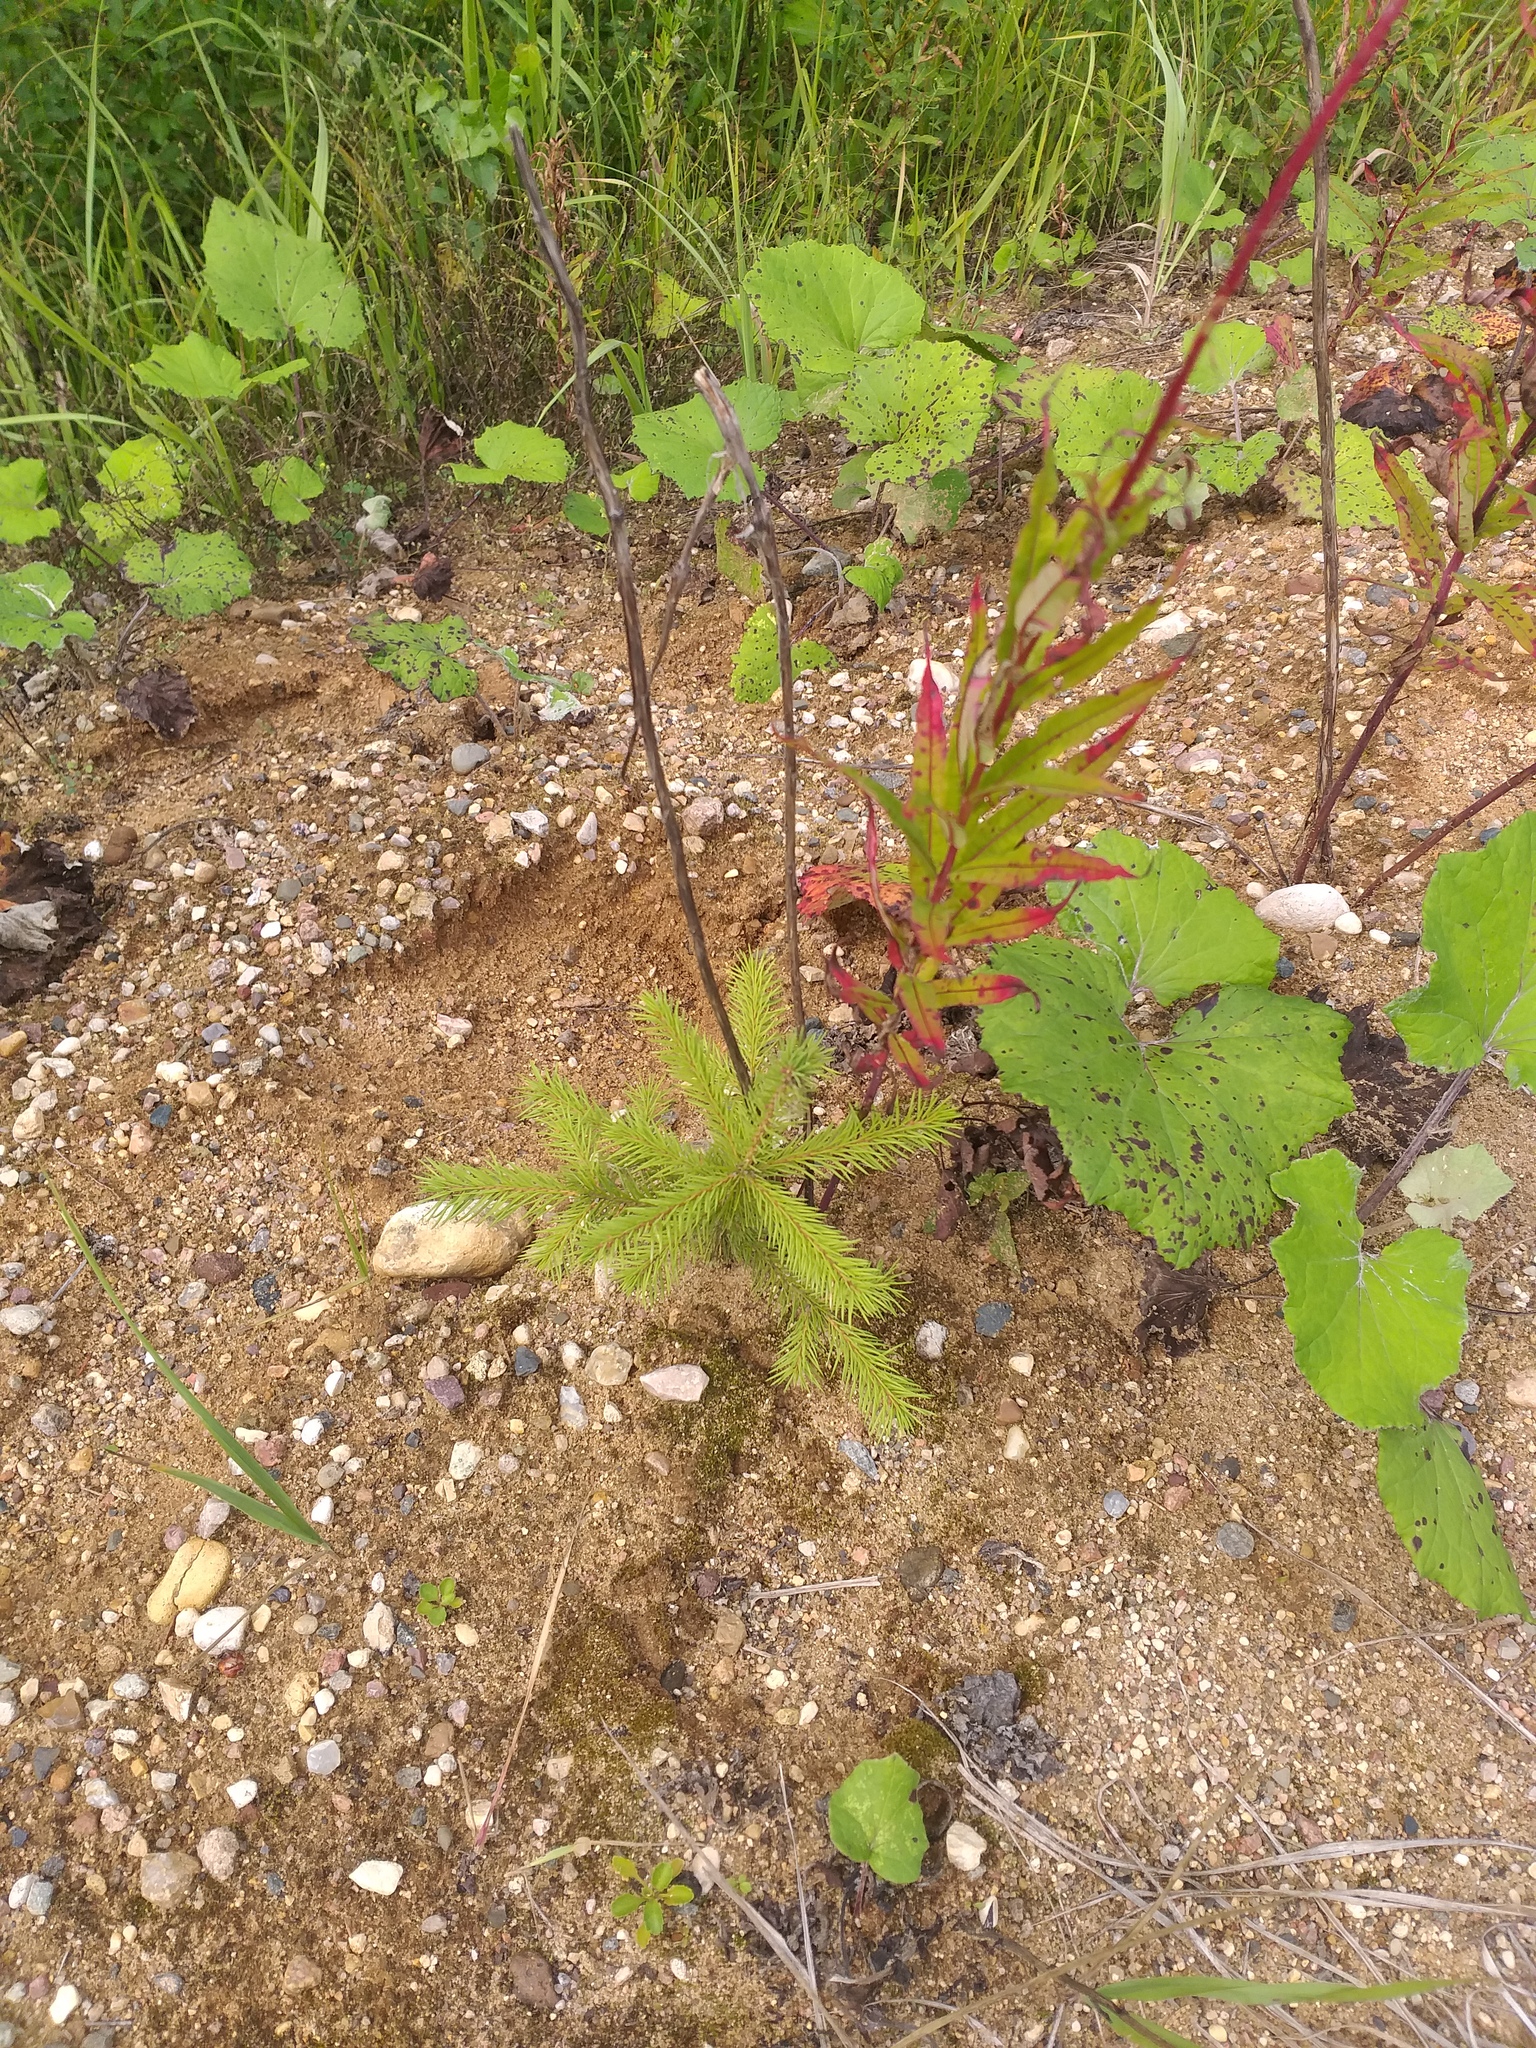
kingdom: Plantae
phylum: Tracheophyta
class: Pinopsida
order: Pinales
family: Pinaceae
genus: Picea
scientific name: Picea abies
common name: Norway spruce
